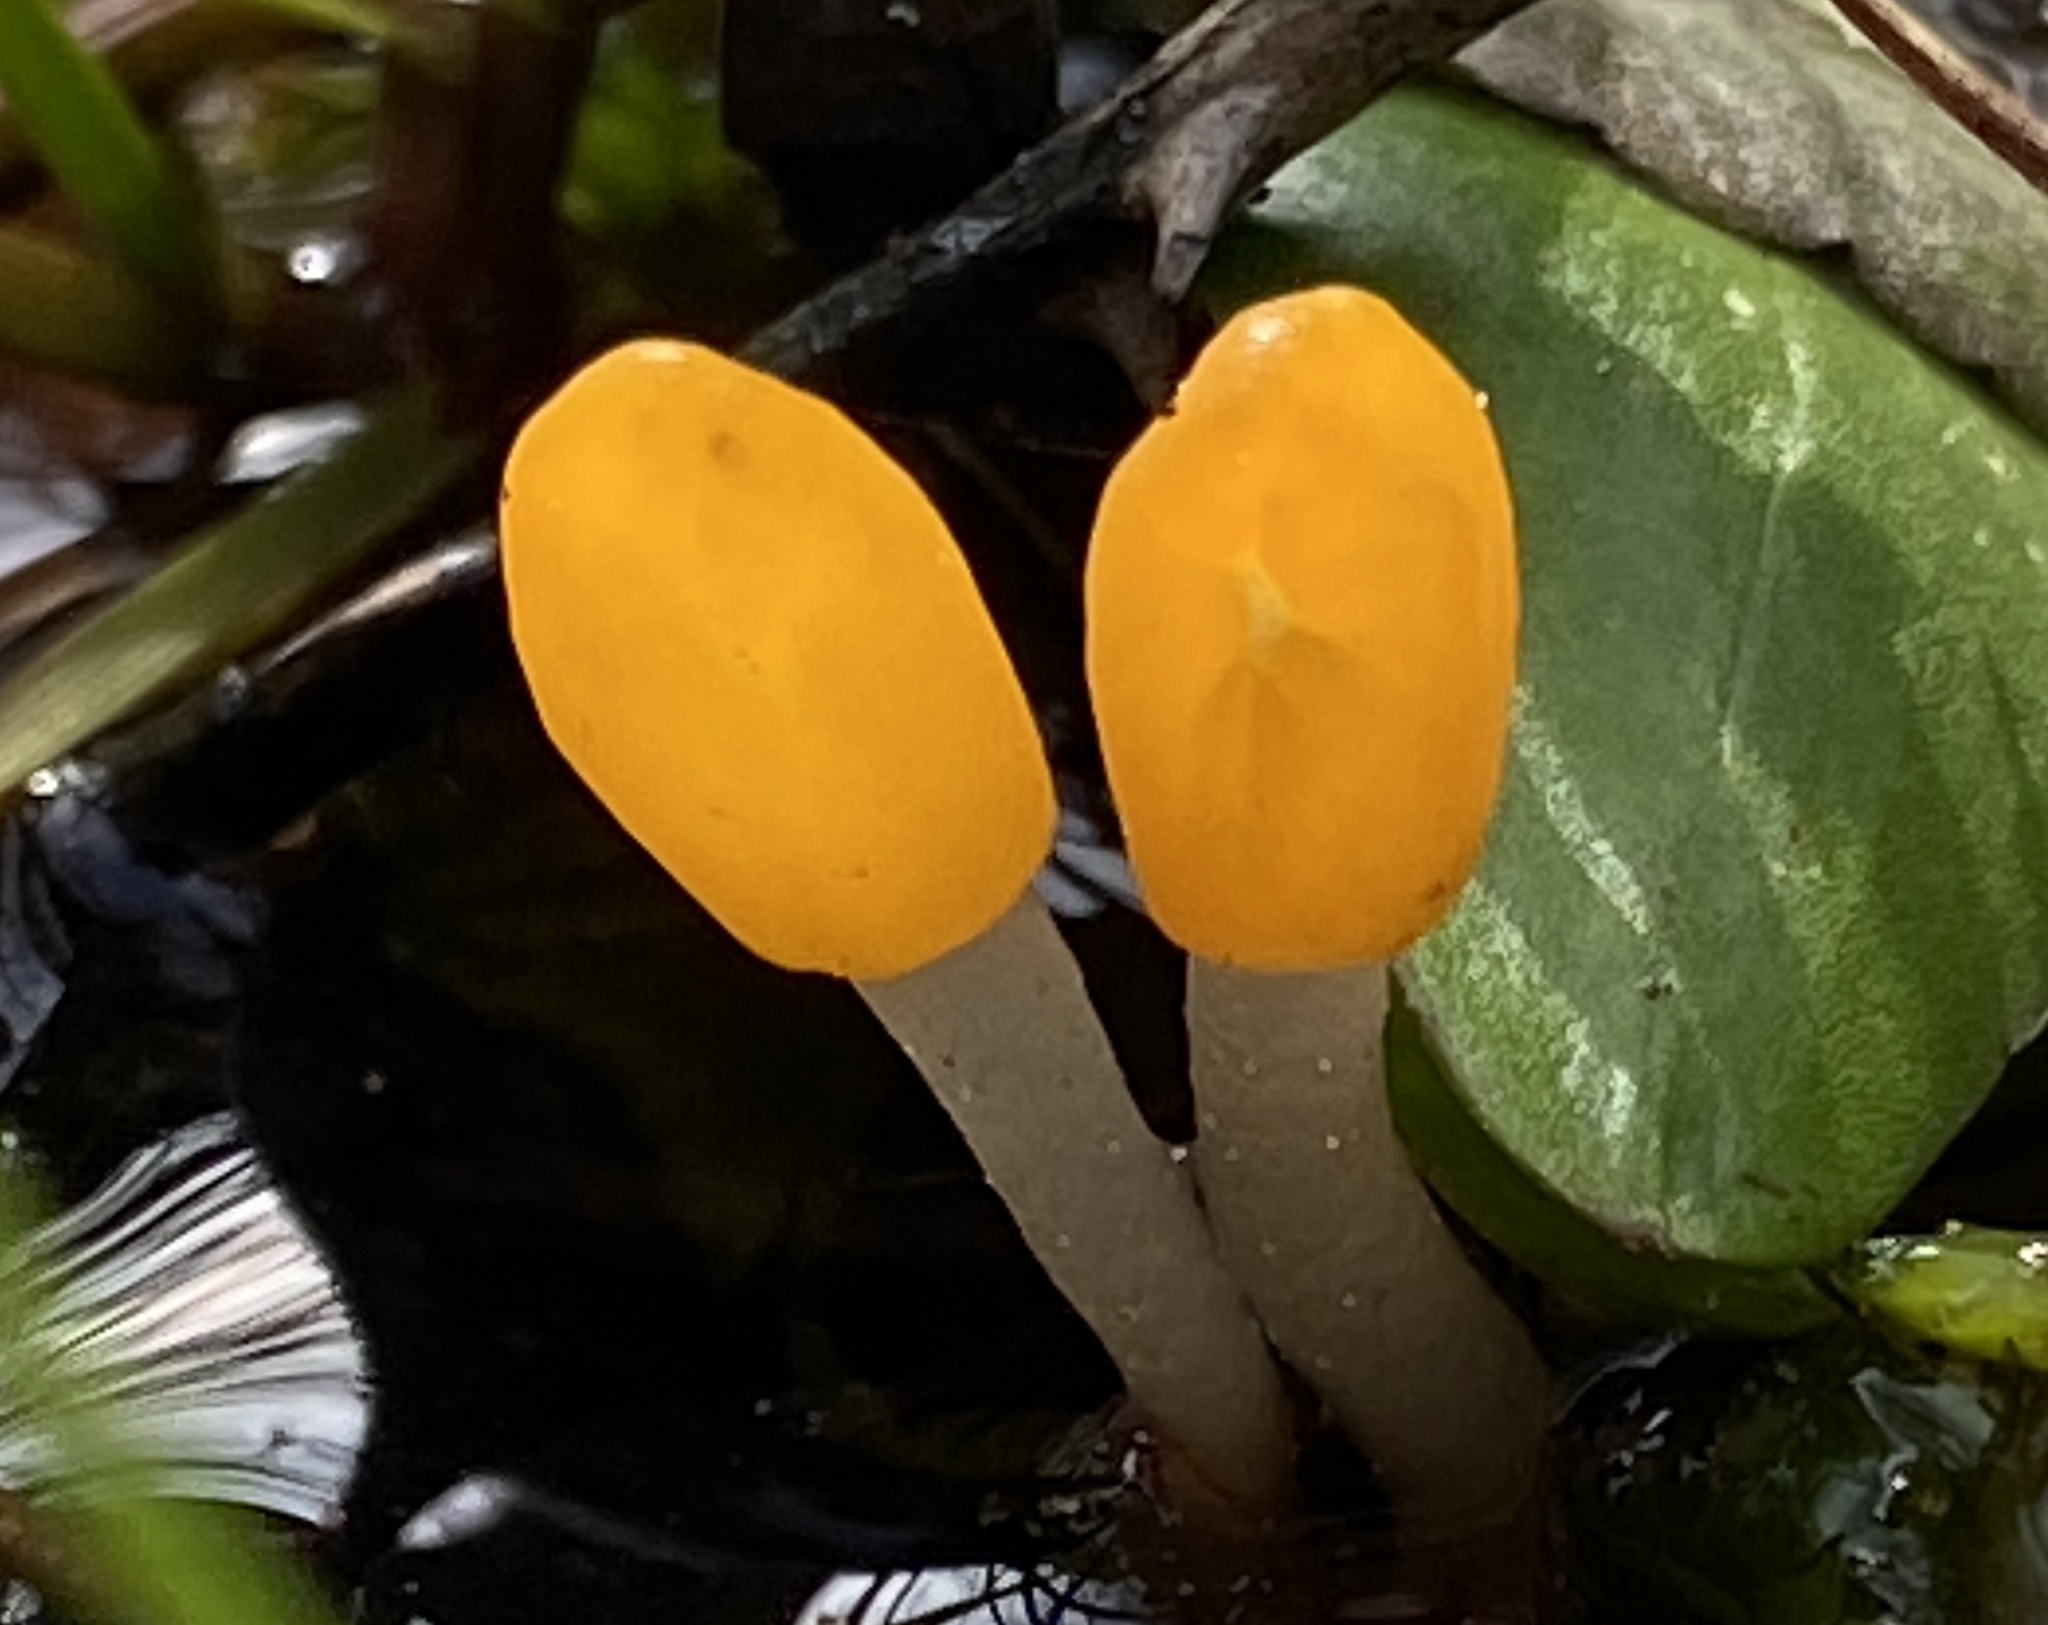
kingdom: Fungi
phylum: Ascomycota
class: Leotiomycetes
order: Helotiales
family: Cenangiaceae
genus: Mitrula
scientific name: Mitrula paludosa
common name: Bog beacon
